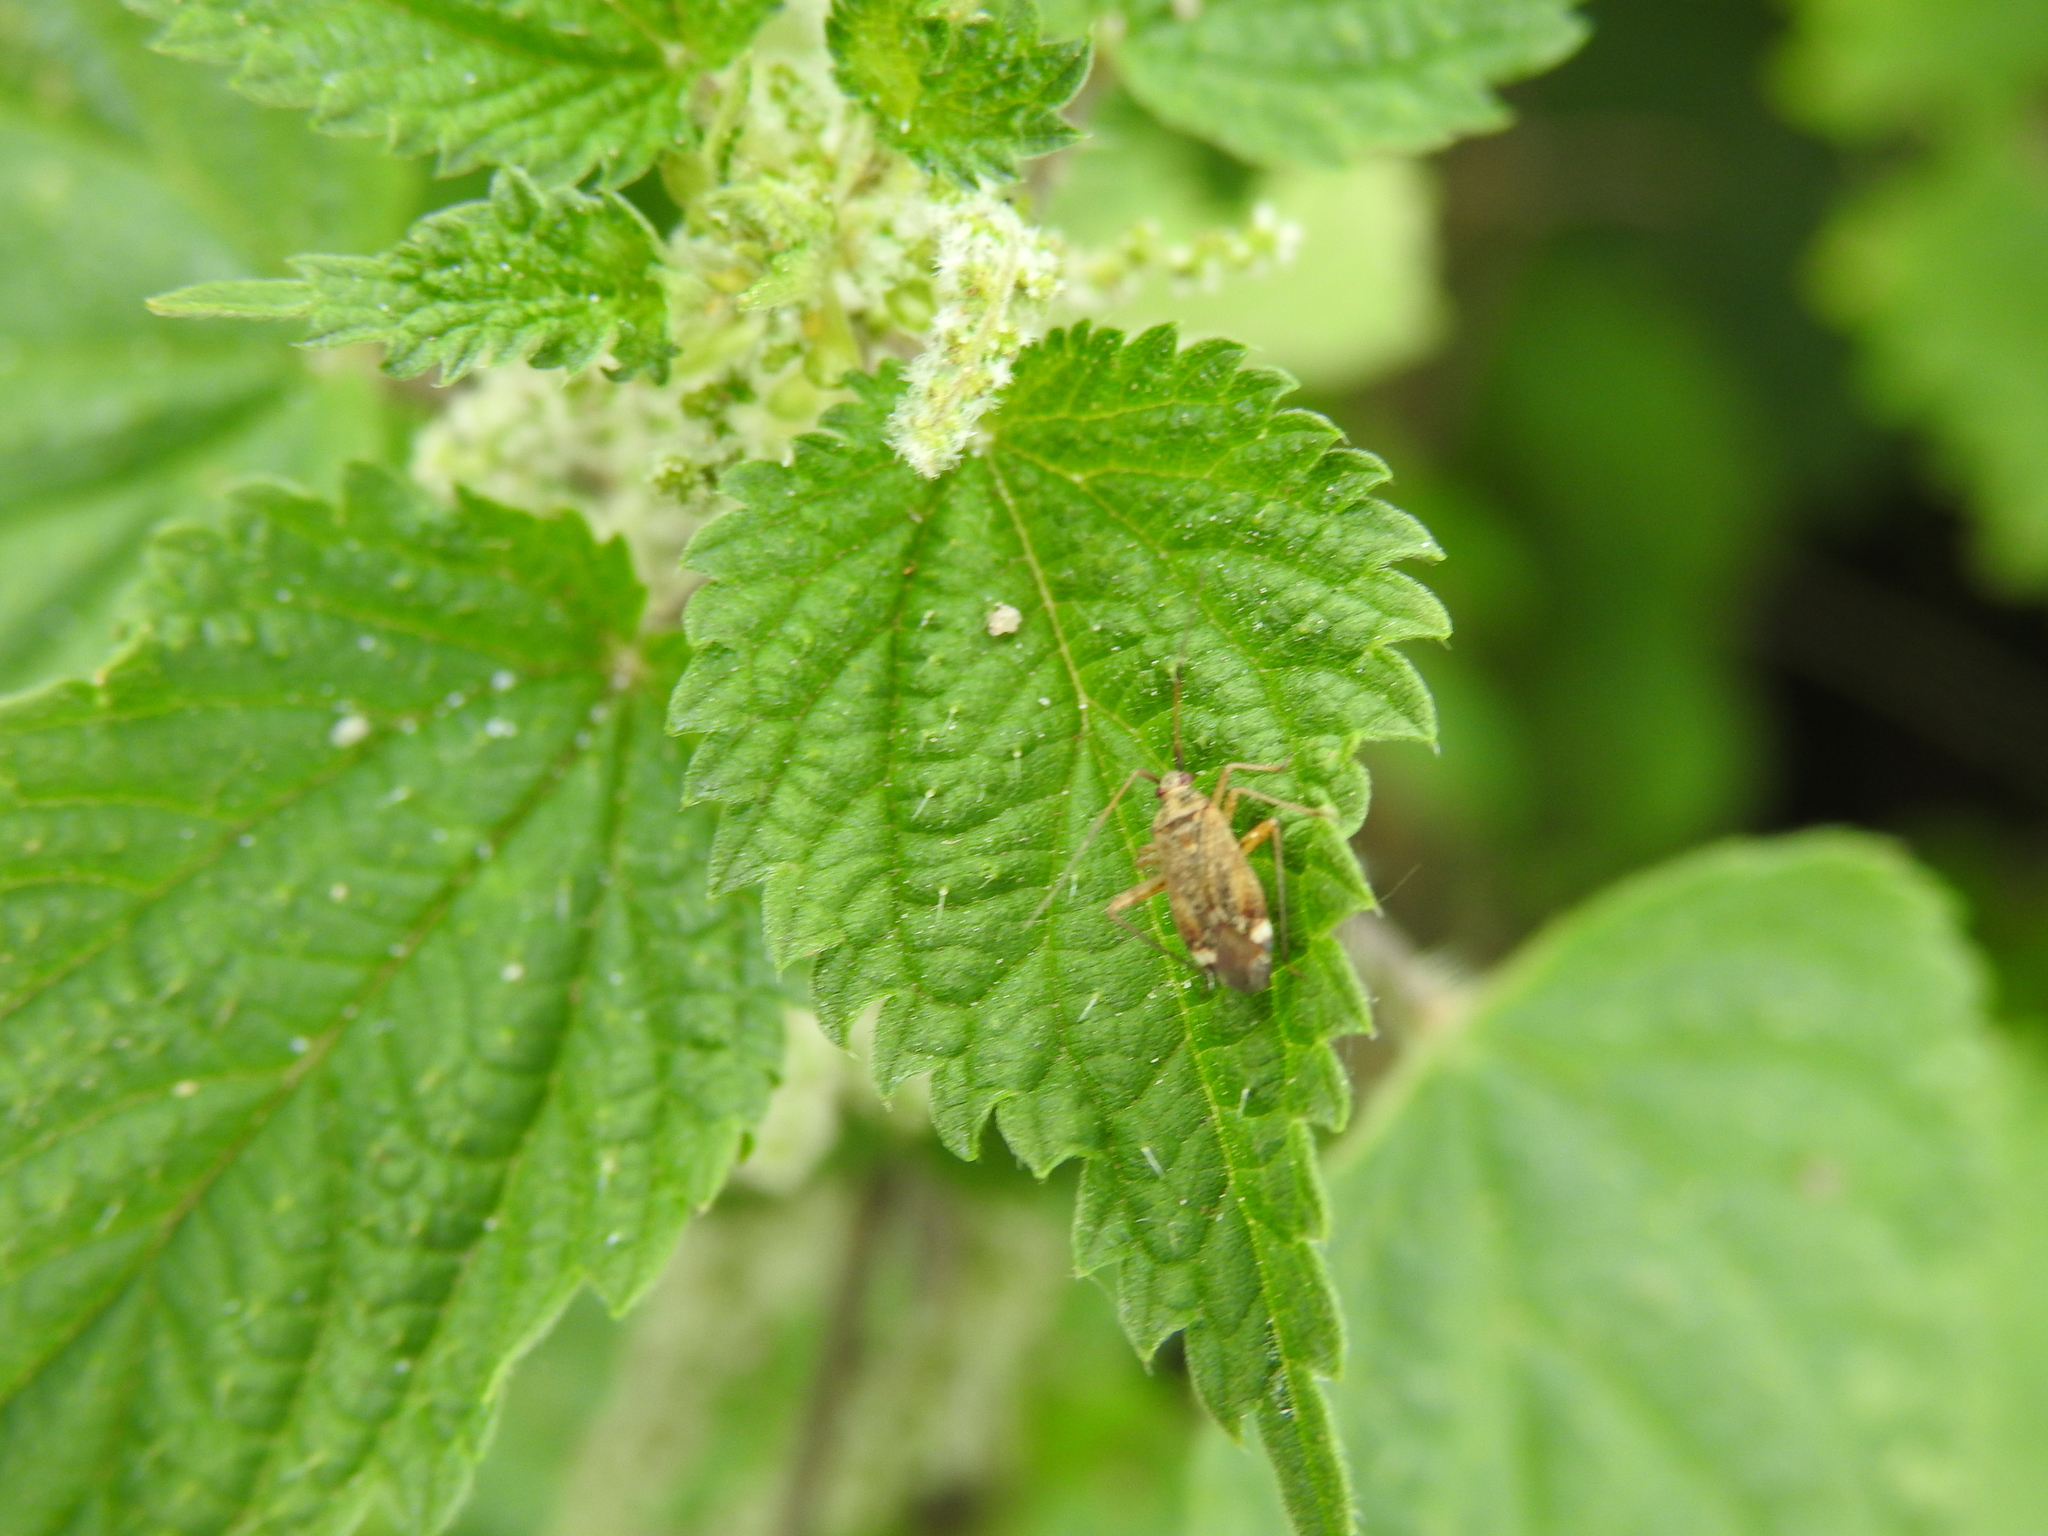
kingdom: Animalia
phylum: Arthropoda
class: Insecta
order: Hemiptera
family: Miridae
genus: Closterotomus
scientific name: Closterotomus fulvomaculatus
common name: Spotted plant bug
